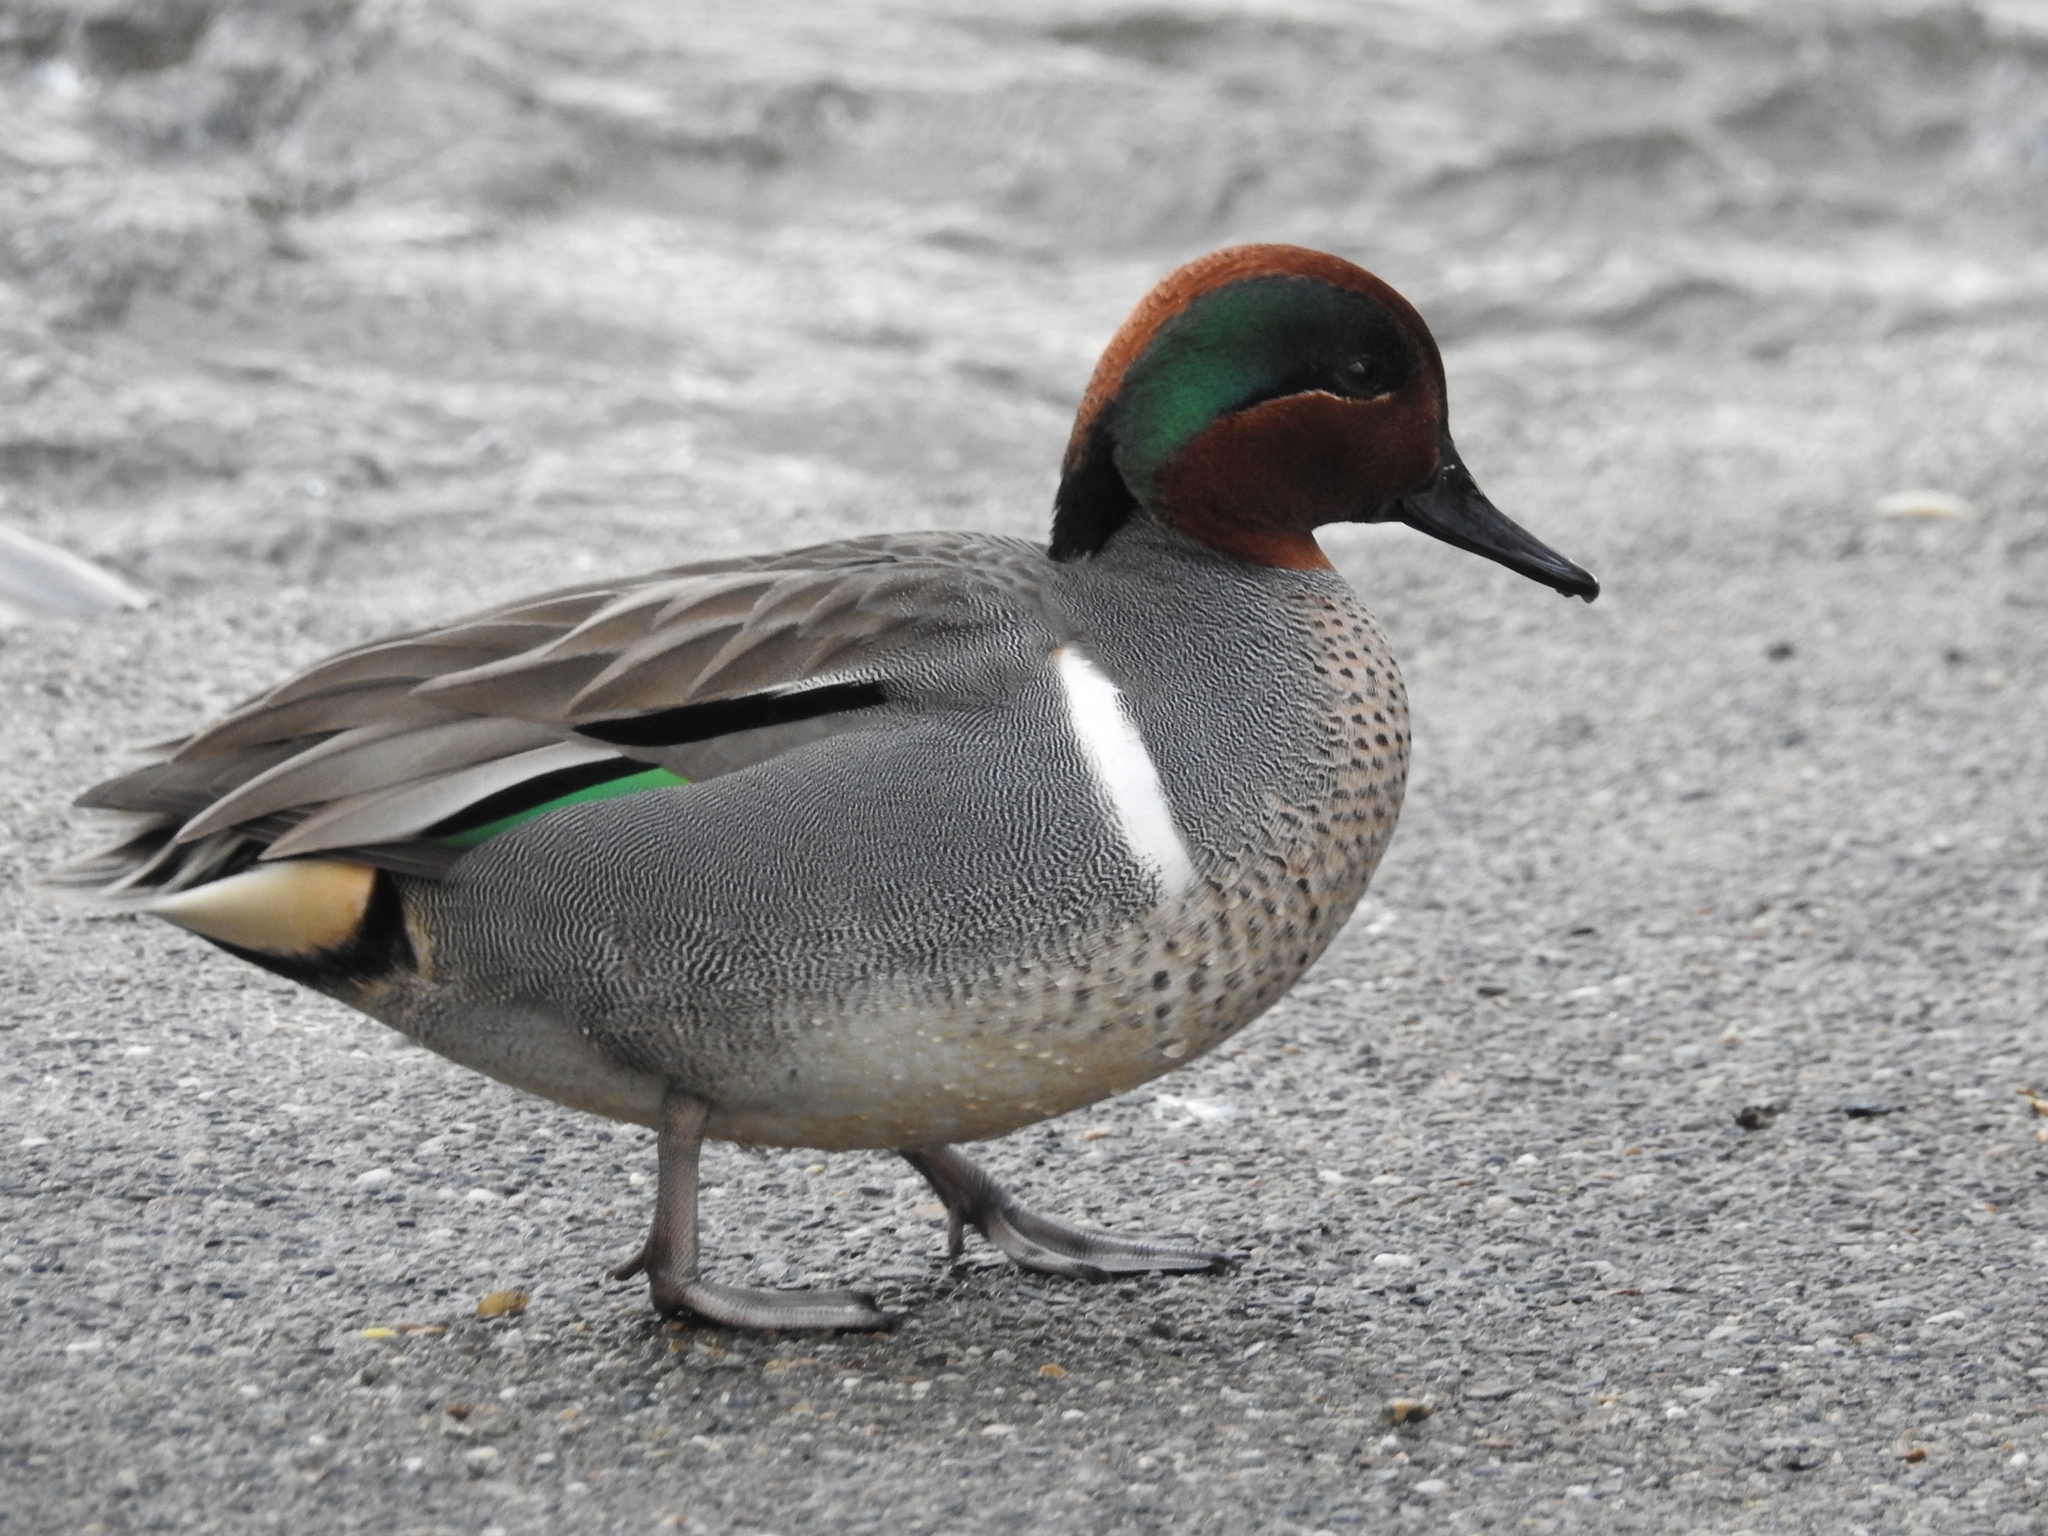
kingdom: Animalia
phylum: Chordata
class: Aves
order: Anseriformes
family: Anatidae
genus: Anas
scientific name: Anas crecca
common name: Eurasian teal
